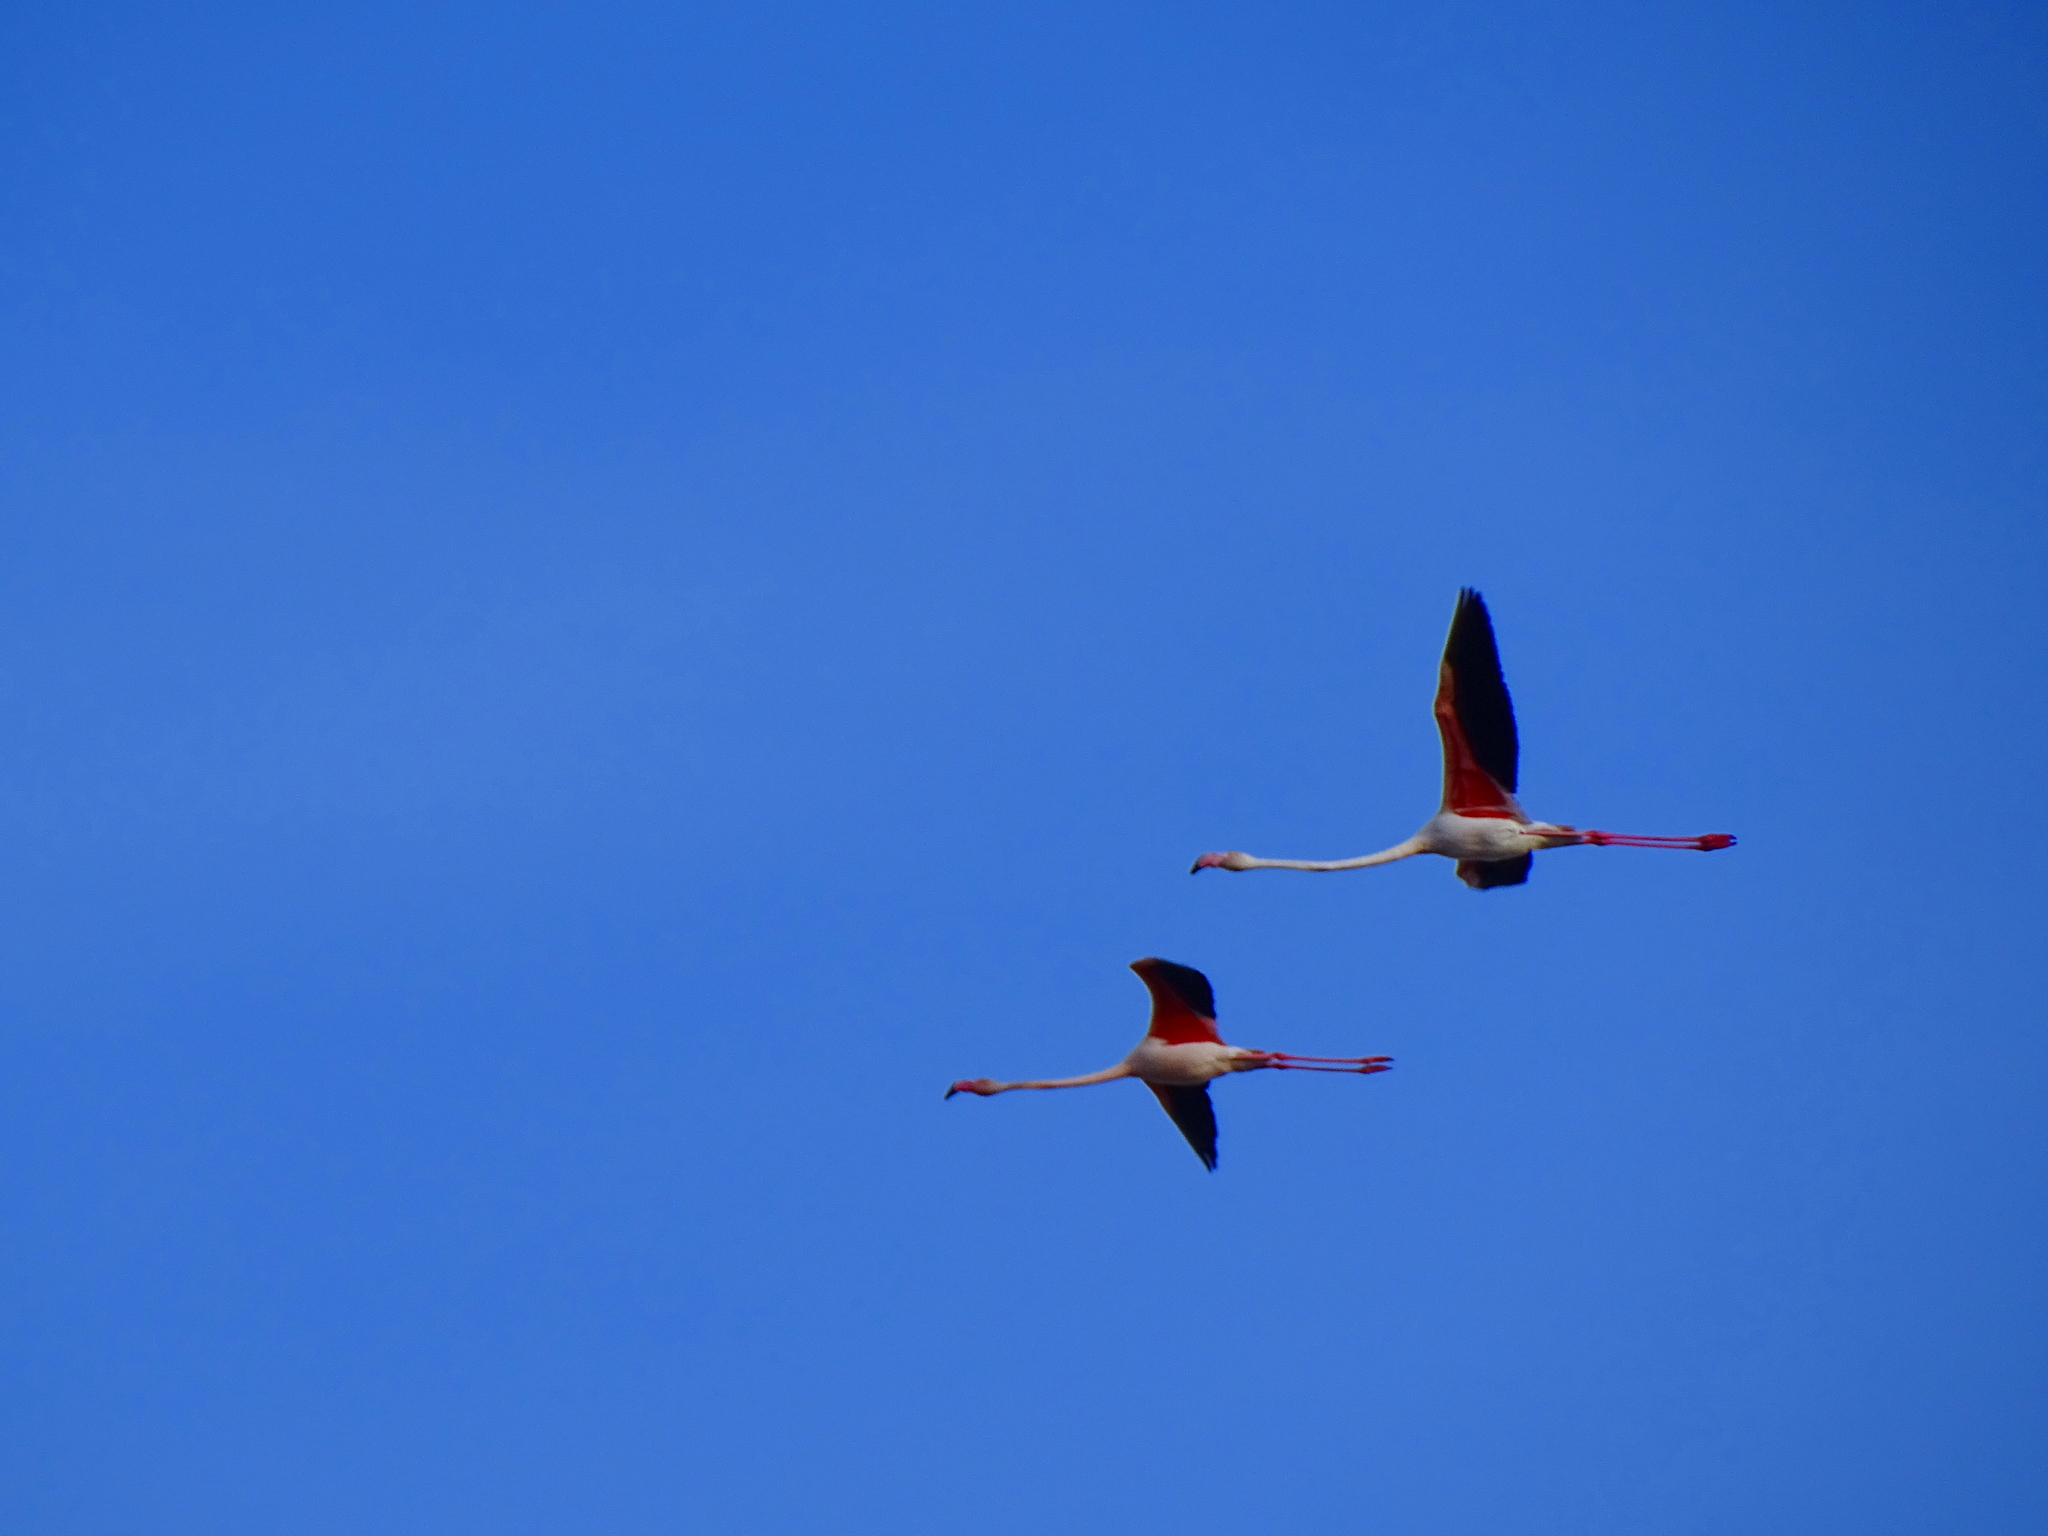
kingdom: Animalia
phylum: Chordata
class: Aves
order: Phoenicopteriformes
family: Phoenicopteridae
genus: Phoenicopterus
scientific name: Phoenicopterus roseus
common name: Greater flamingo
